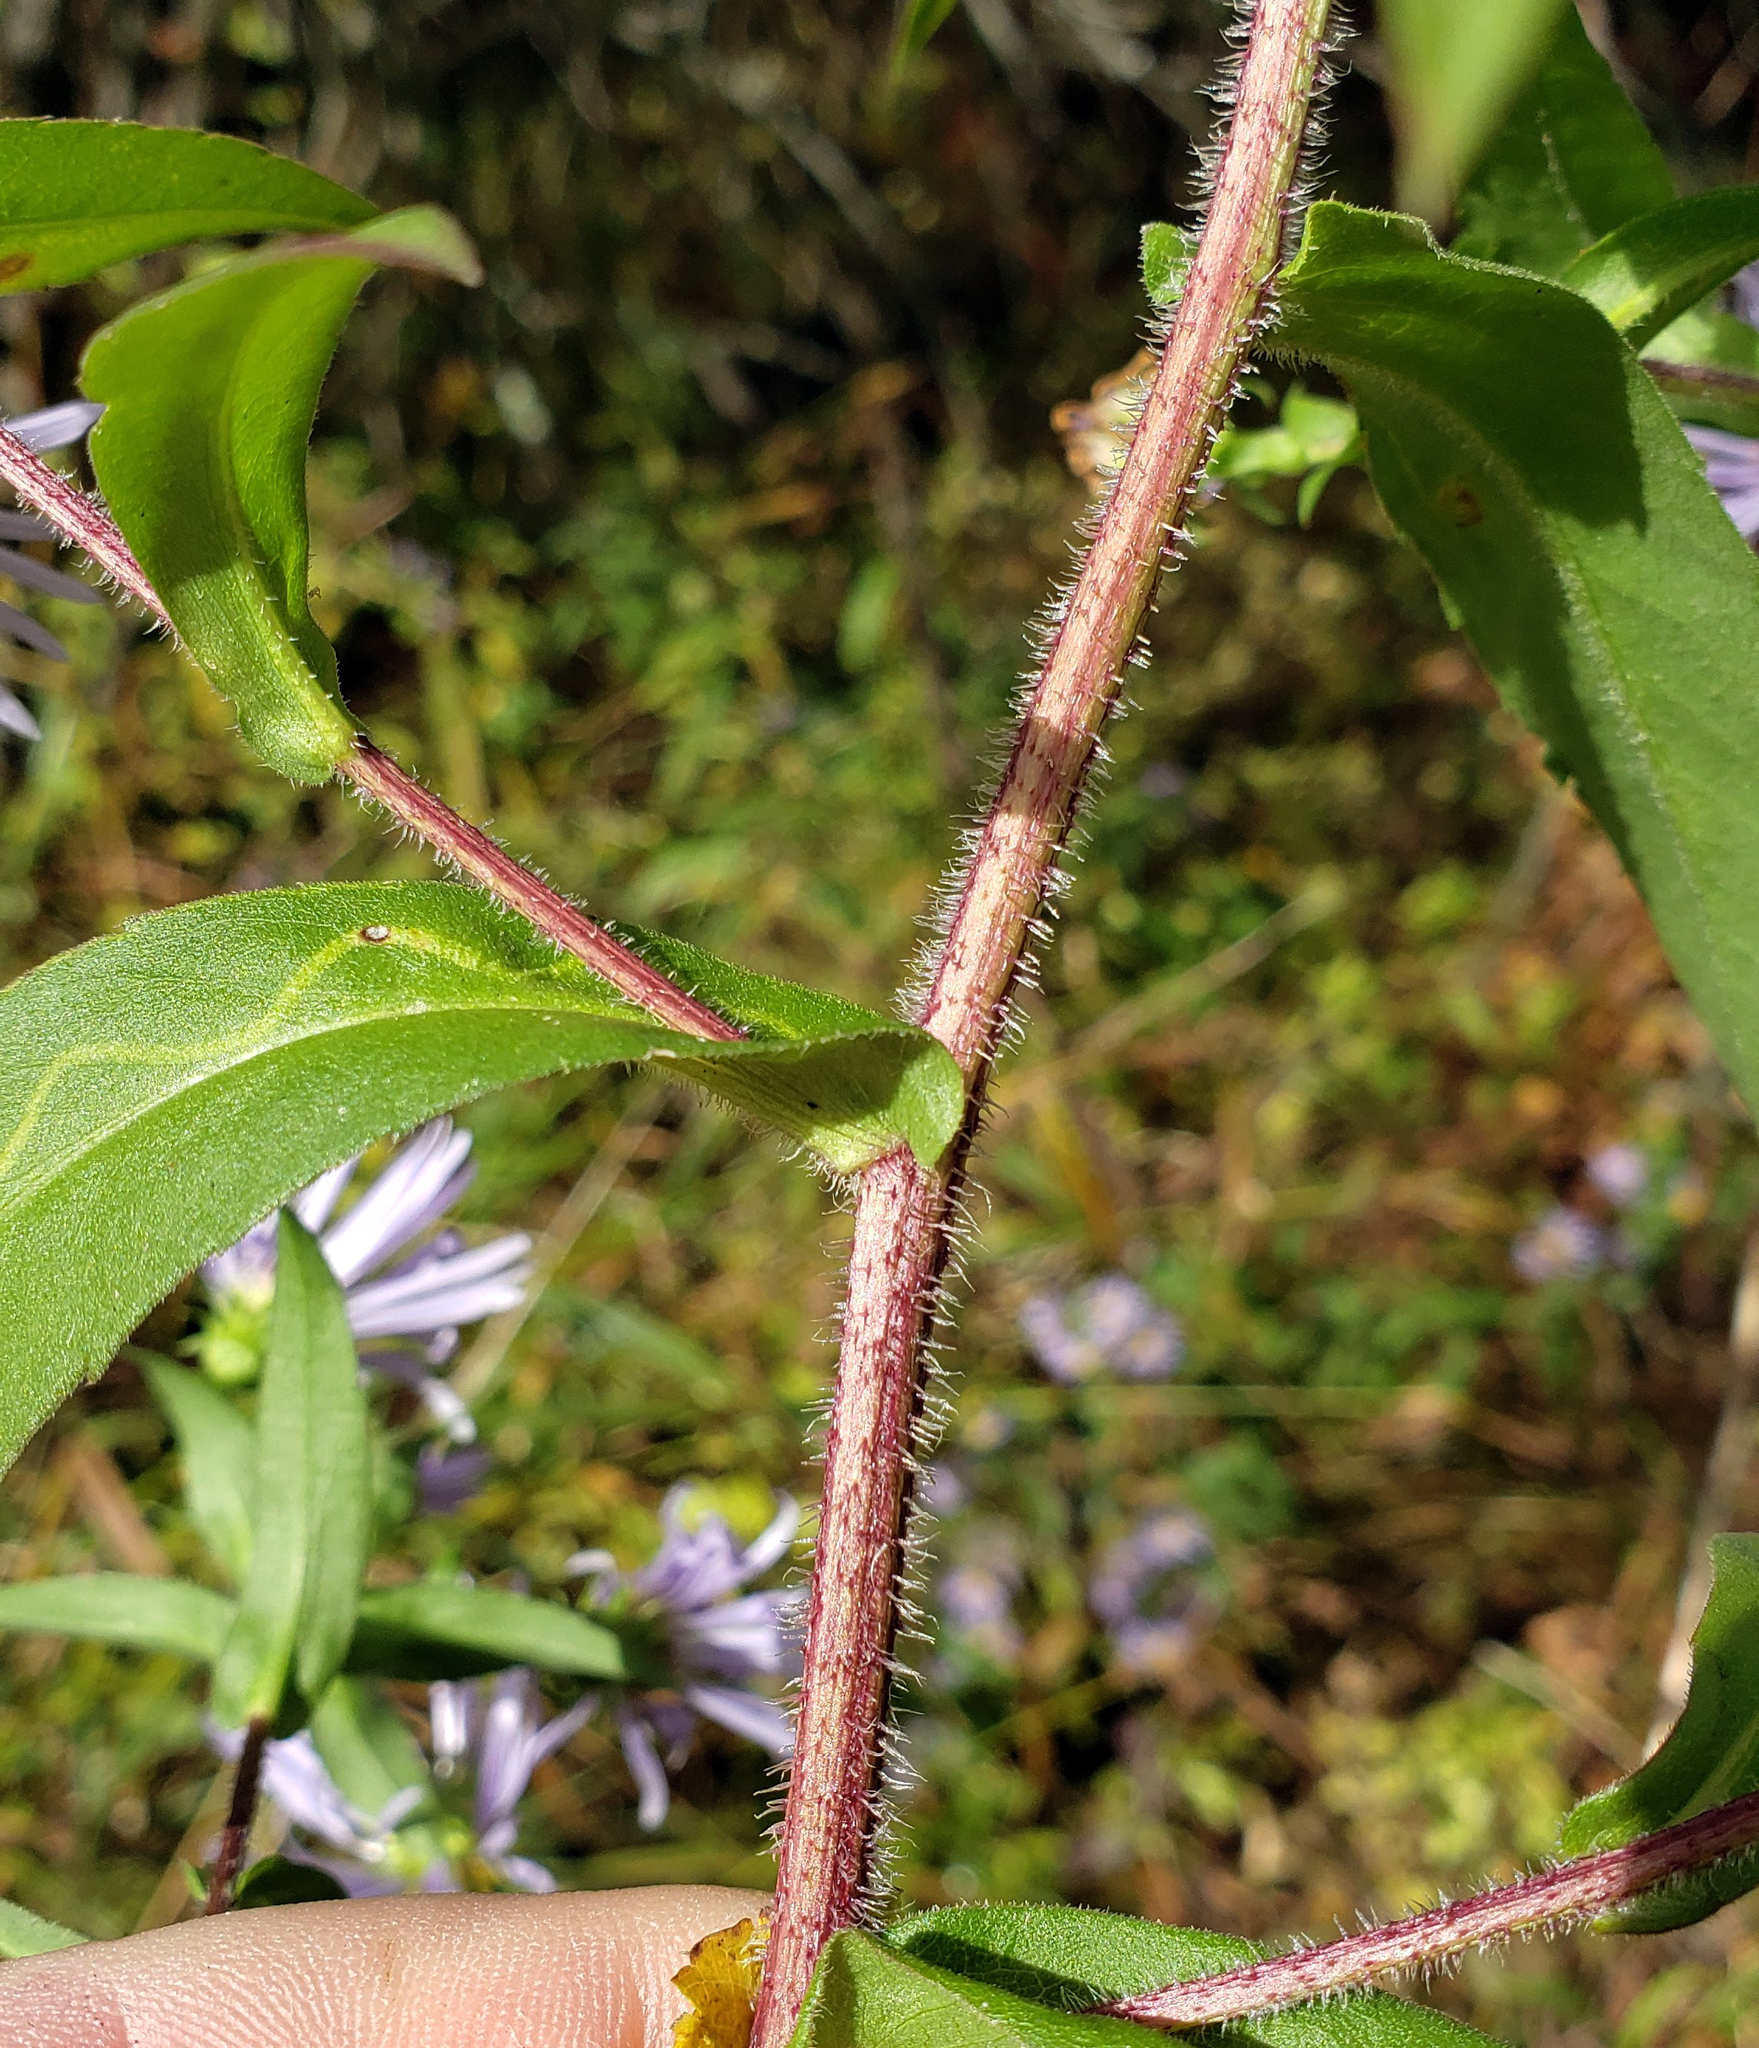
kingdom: Plantae
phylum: Tracheophyta
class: Magnoliopsida
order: Asterales
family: Asteraceae
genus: Symphyotrichum
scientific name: Symphyotrichum puniceum
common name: Bog aster
